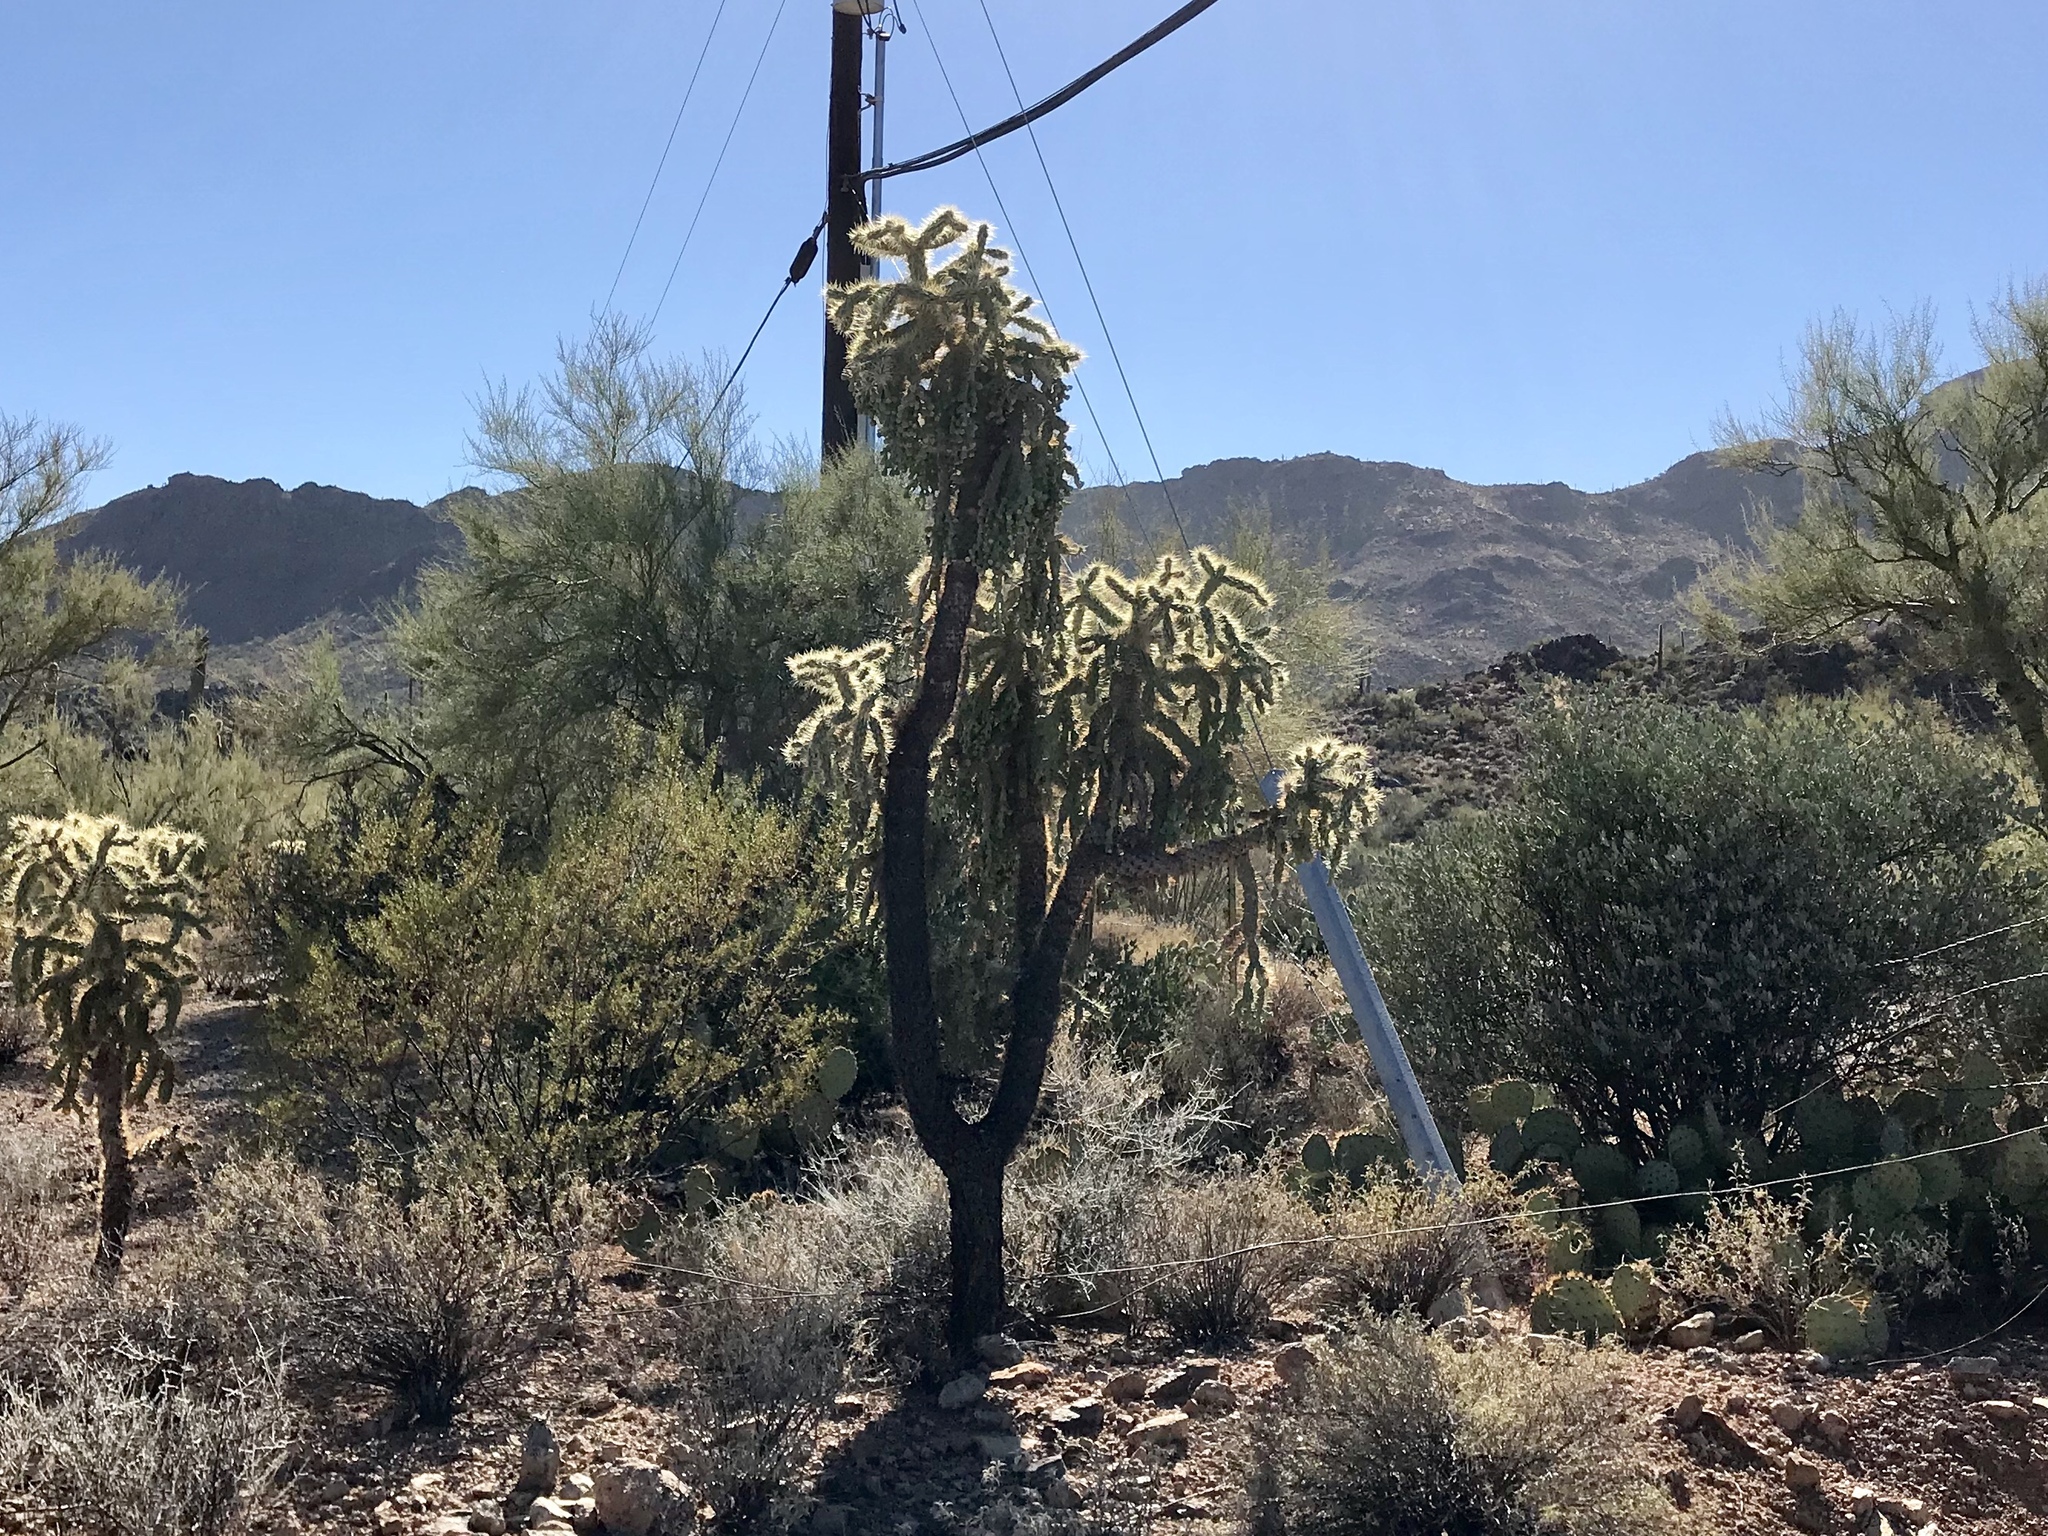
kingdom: Plantae
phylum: Tracheophyta
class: Magnoliopsida
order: Caryophyllales
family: Cactaceae
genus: Cylindropuntia
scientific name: Cylindropuntia fulgida
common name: Jumping cholla
